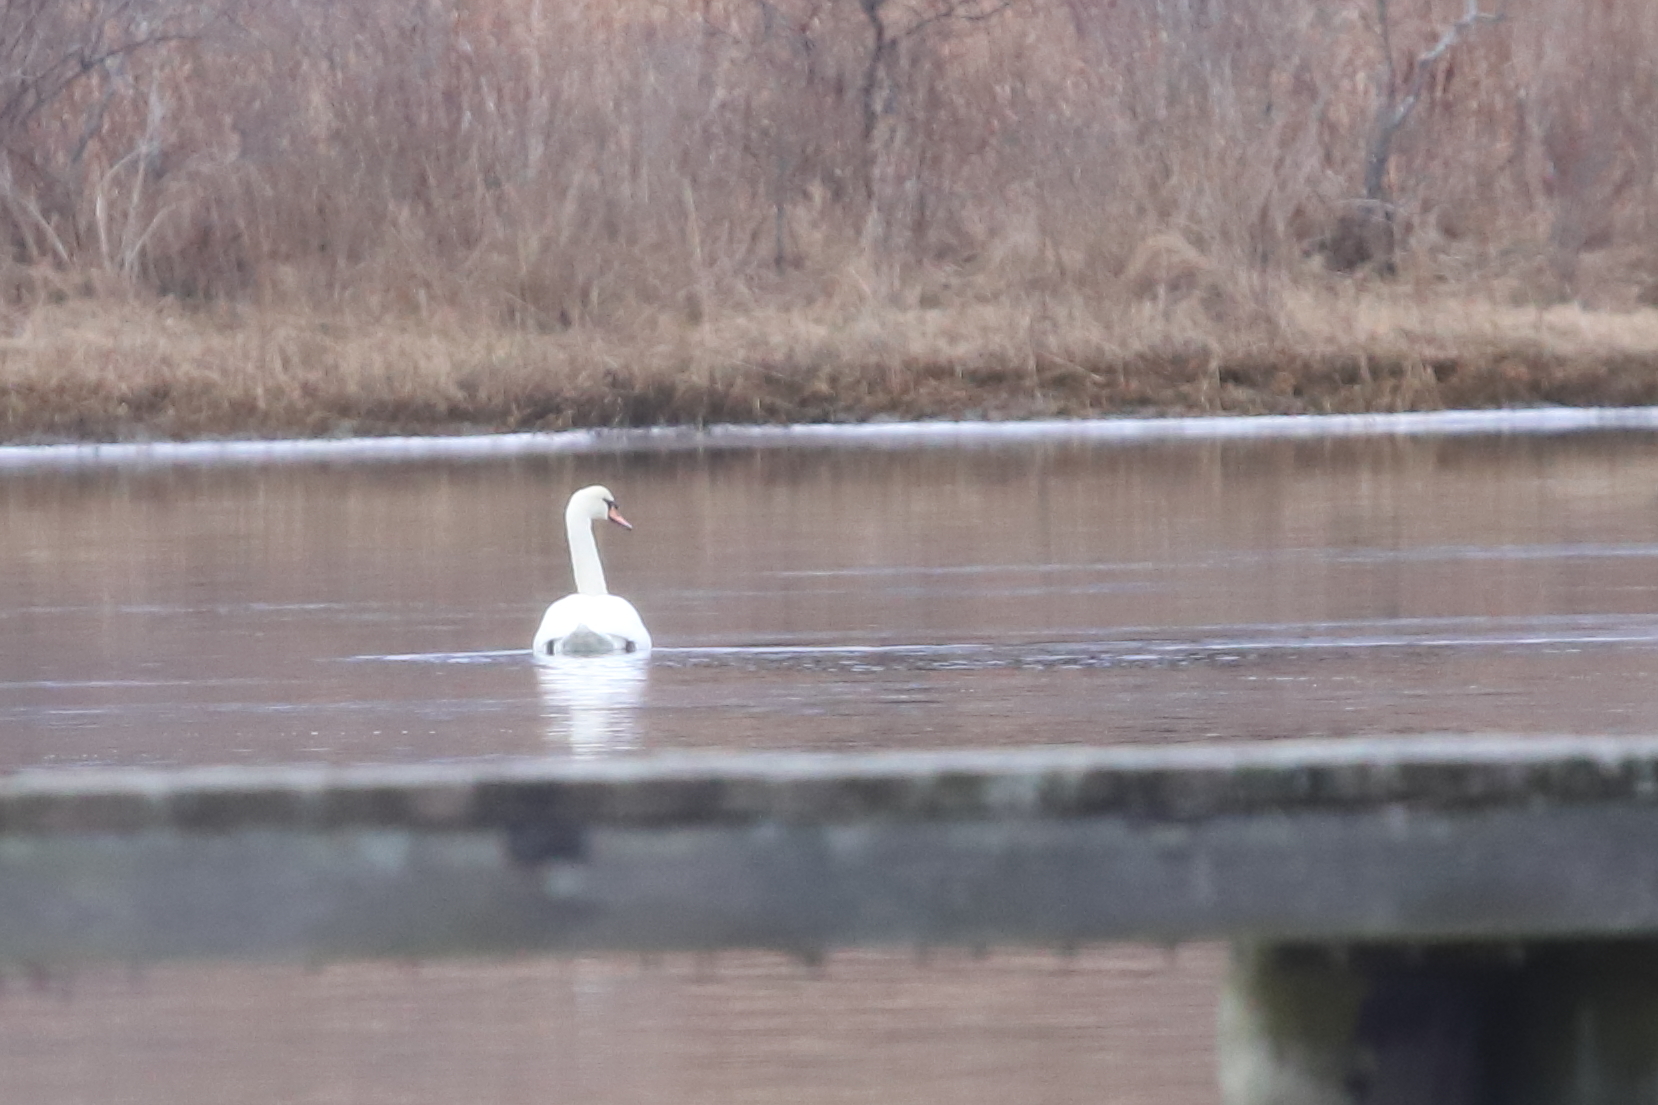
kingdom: Animalia
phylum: Chordata
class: Aves
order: Anseriformes
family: Anatidae
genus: Cygnus
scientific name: Cygnus olor
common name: Mute swan
